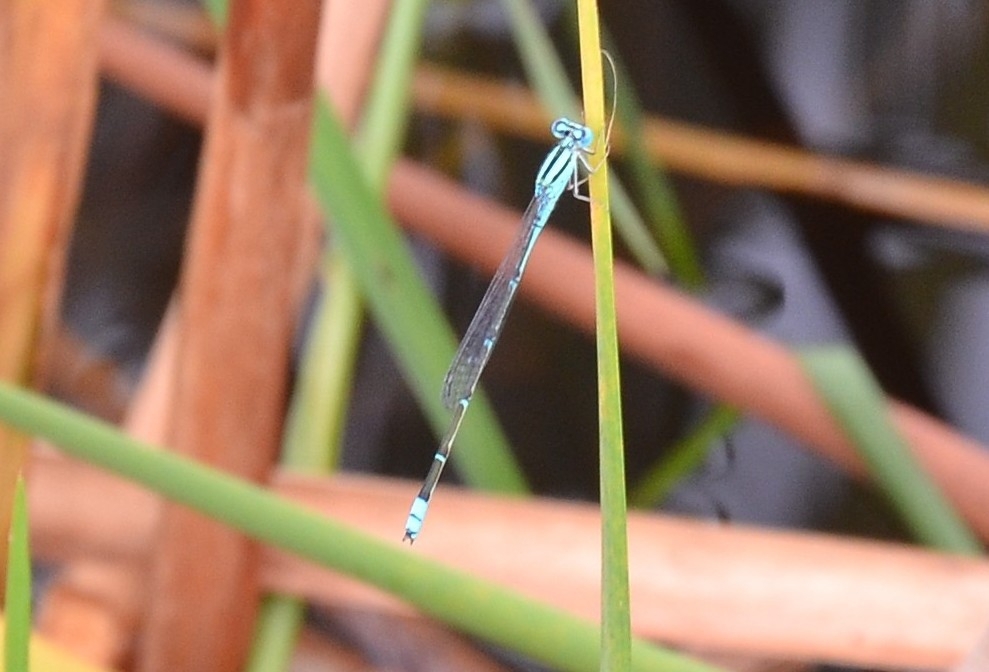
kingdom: Animalia
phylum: Arthropoda
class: Insecta
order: Odonata
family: Coenagrionidae
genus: Pseudagrion
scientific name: Pseudagrion microcephalum
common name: Blue riverdamsel
